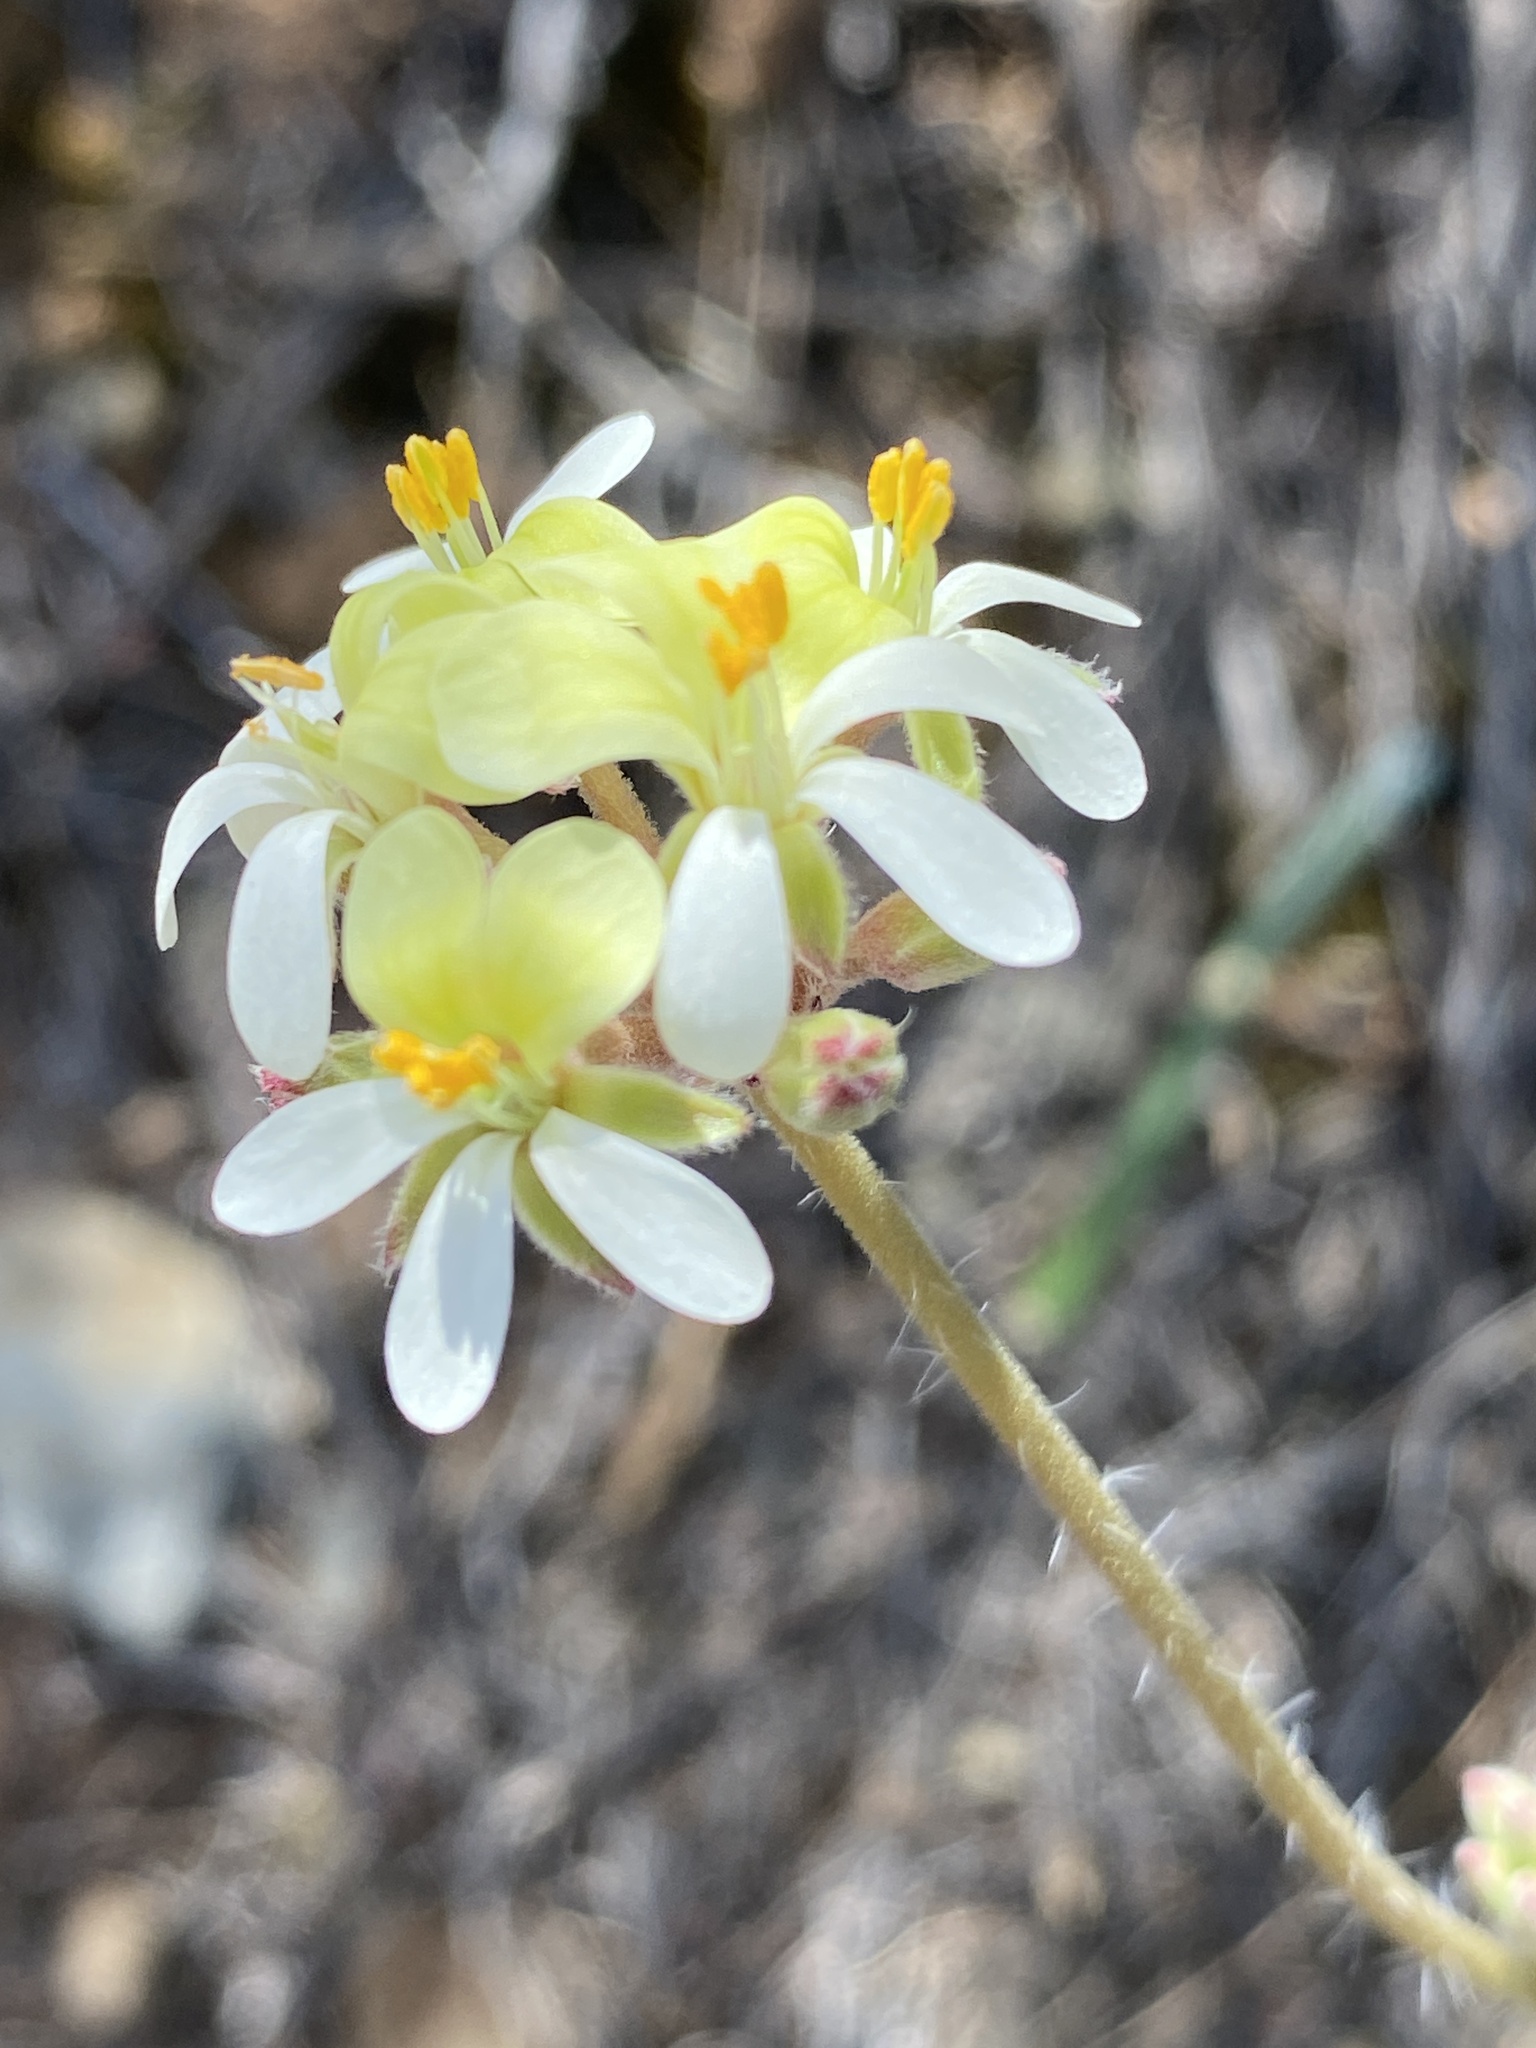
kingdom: Plantae
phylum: Tracheophyta
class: Magnoliopsida
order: Geraniales
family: Geraniaceae
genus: Pelargonium
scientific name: Pelargonium ochroleucum
